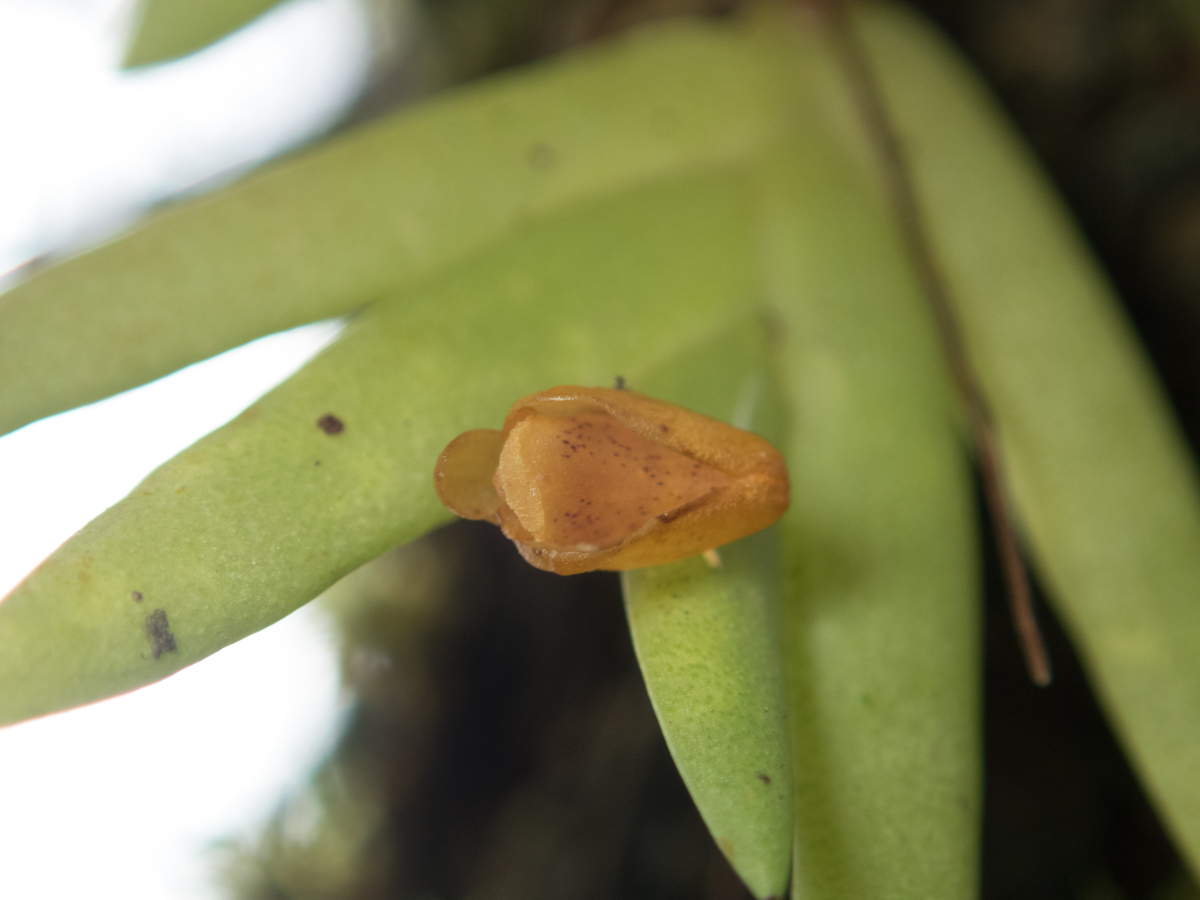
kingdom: Plantae
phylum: Tracheophyta
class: Liliopsida
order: Asparagales
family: Orchidaceae
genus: Oxystophyllum
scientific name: Oxystophyllum carnosum
